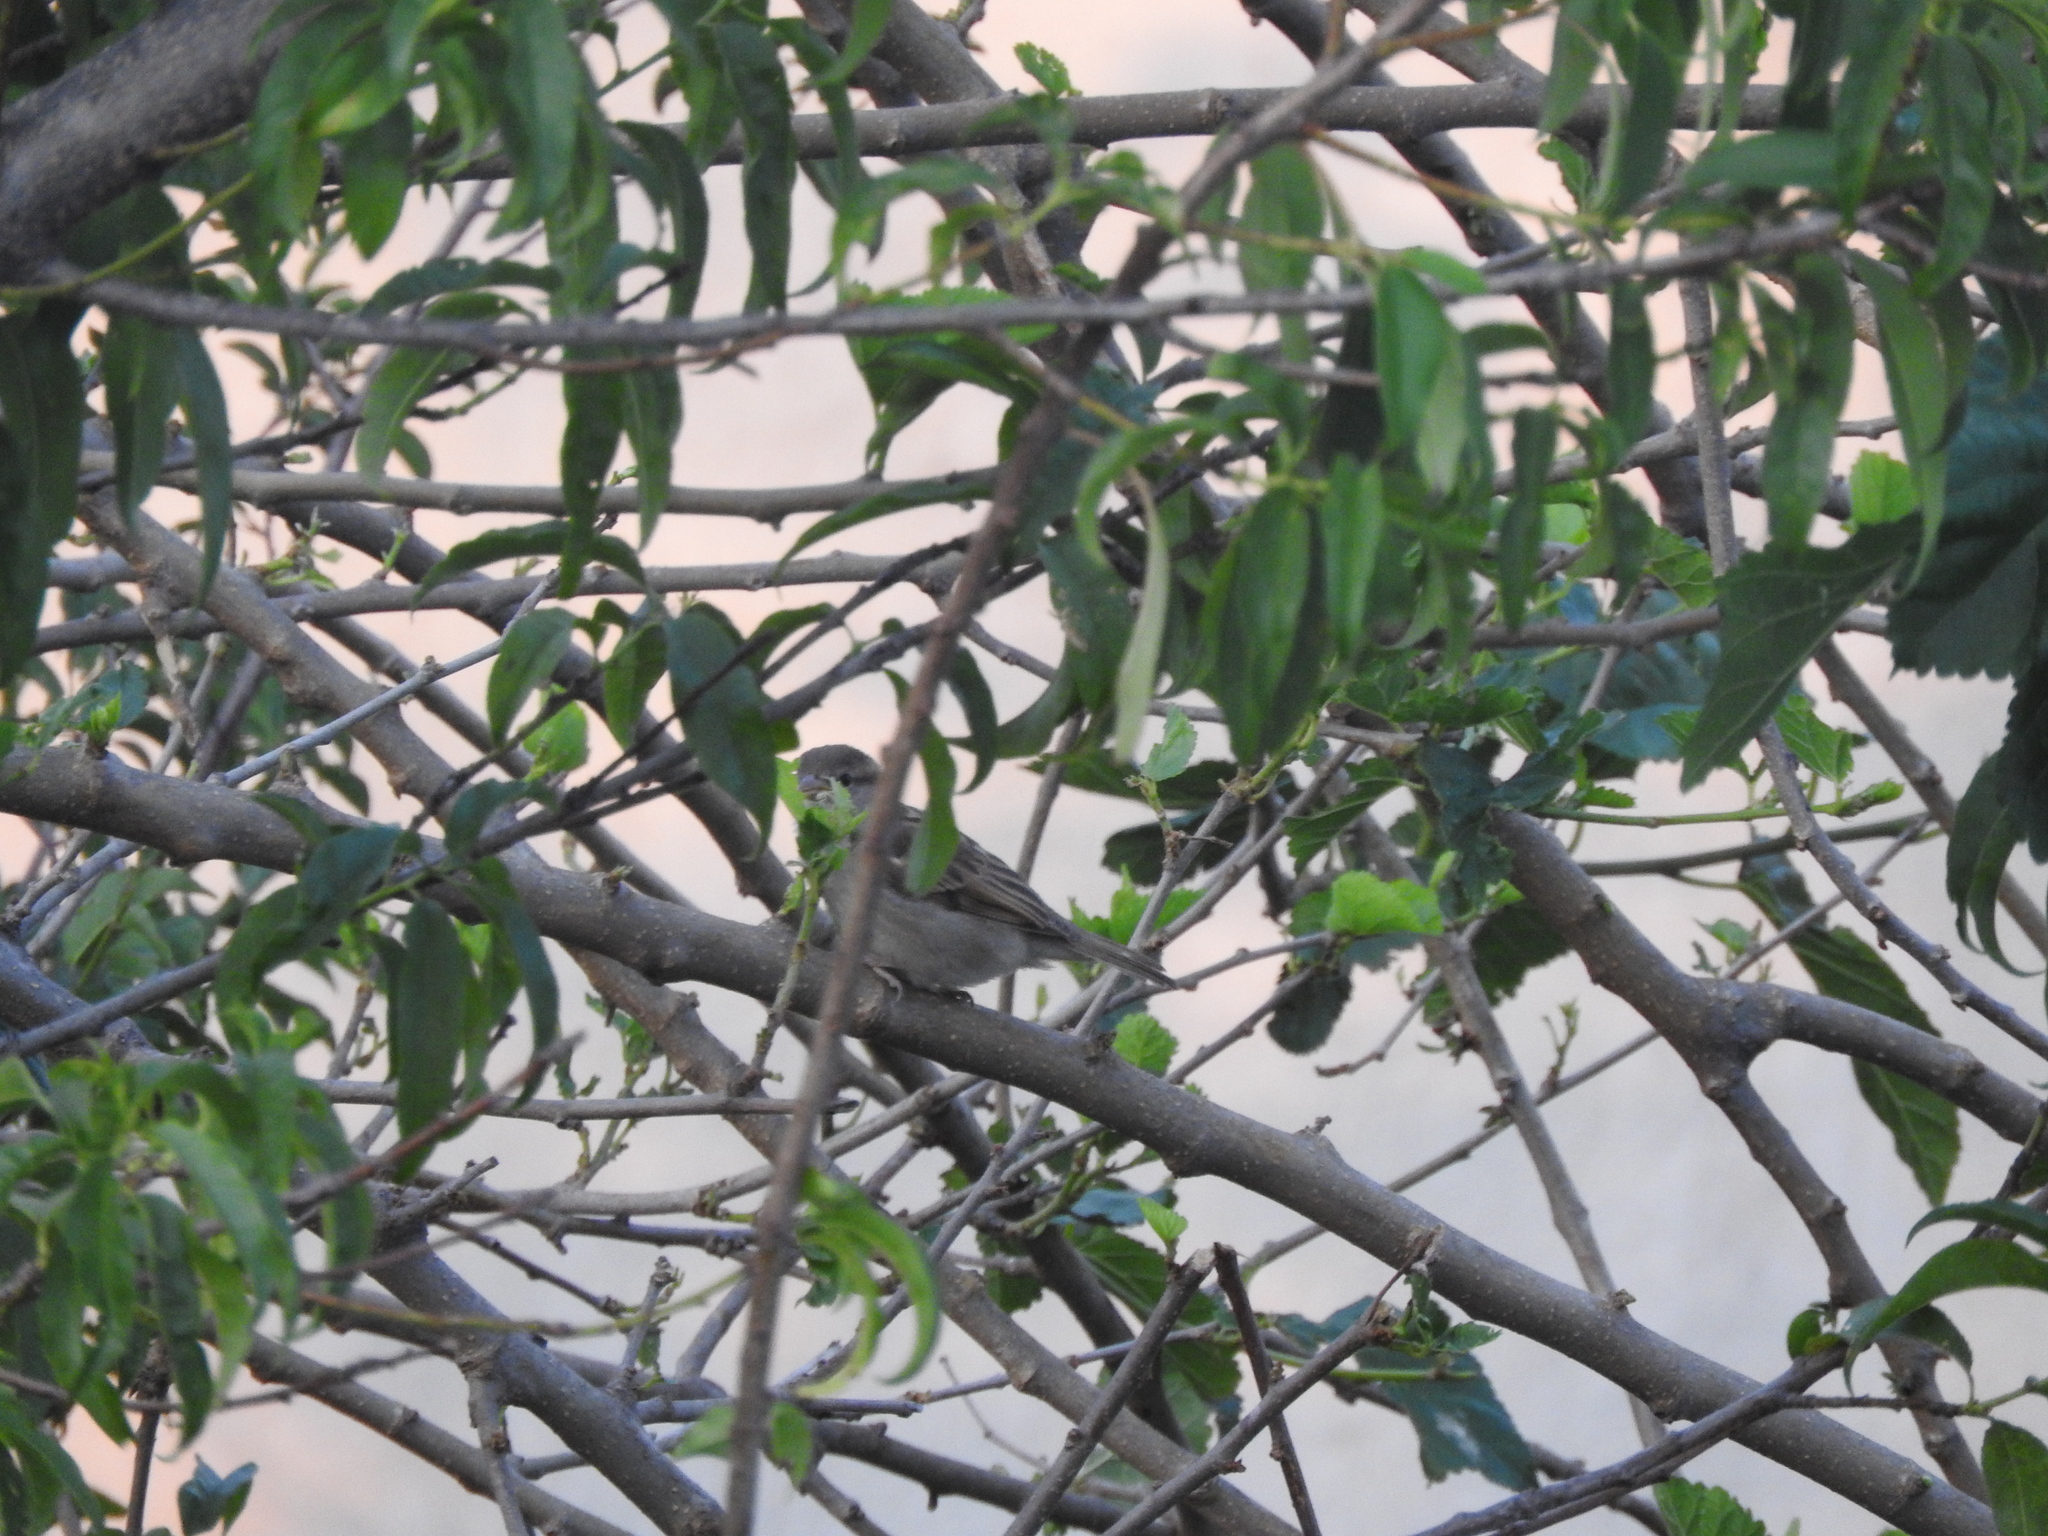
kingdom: Animalia
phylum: Chordata
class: Aves
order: Passeriformes
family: Passeridae
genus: Passer
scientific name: Passer domesticus
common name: House sparrow
